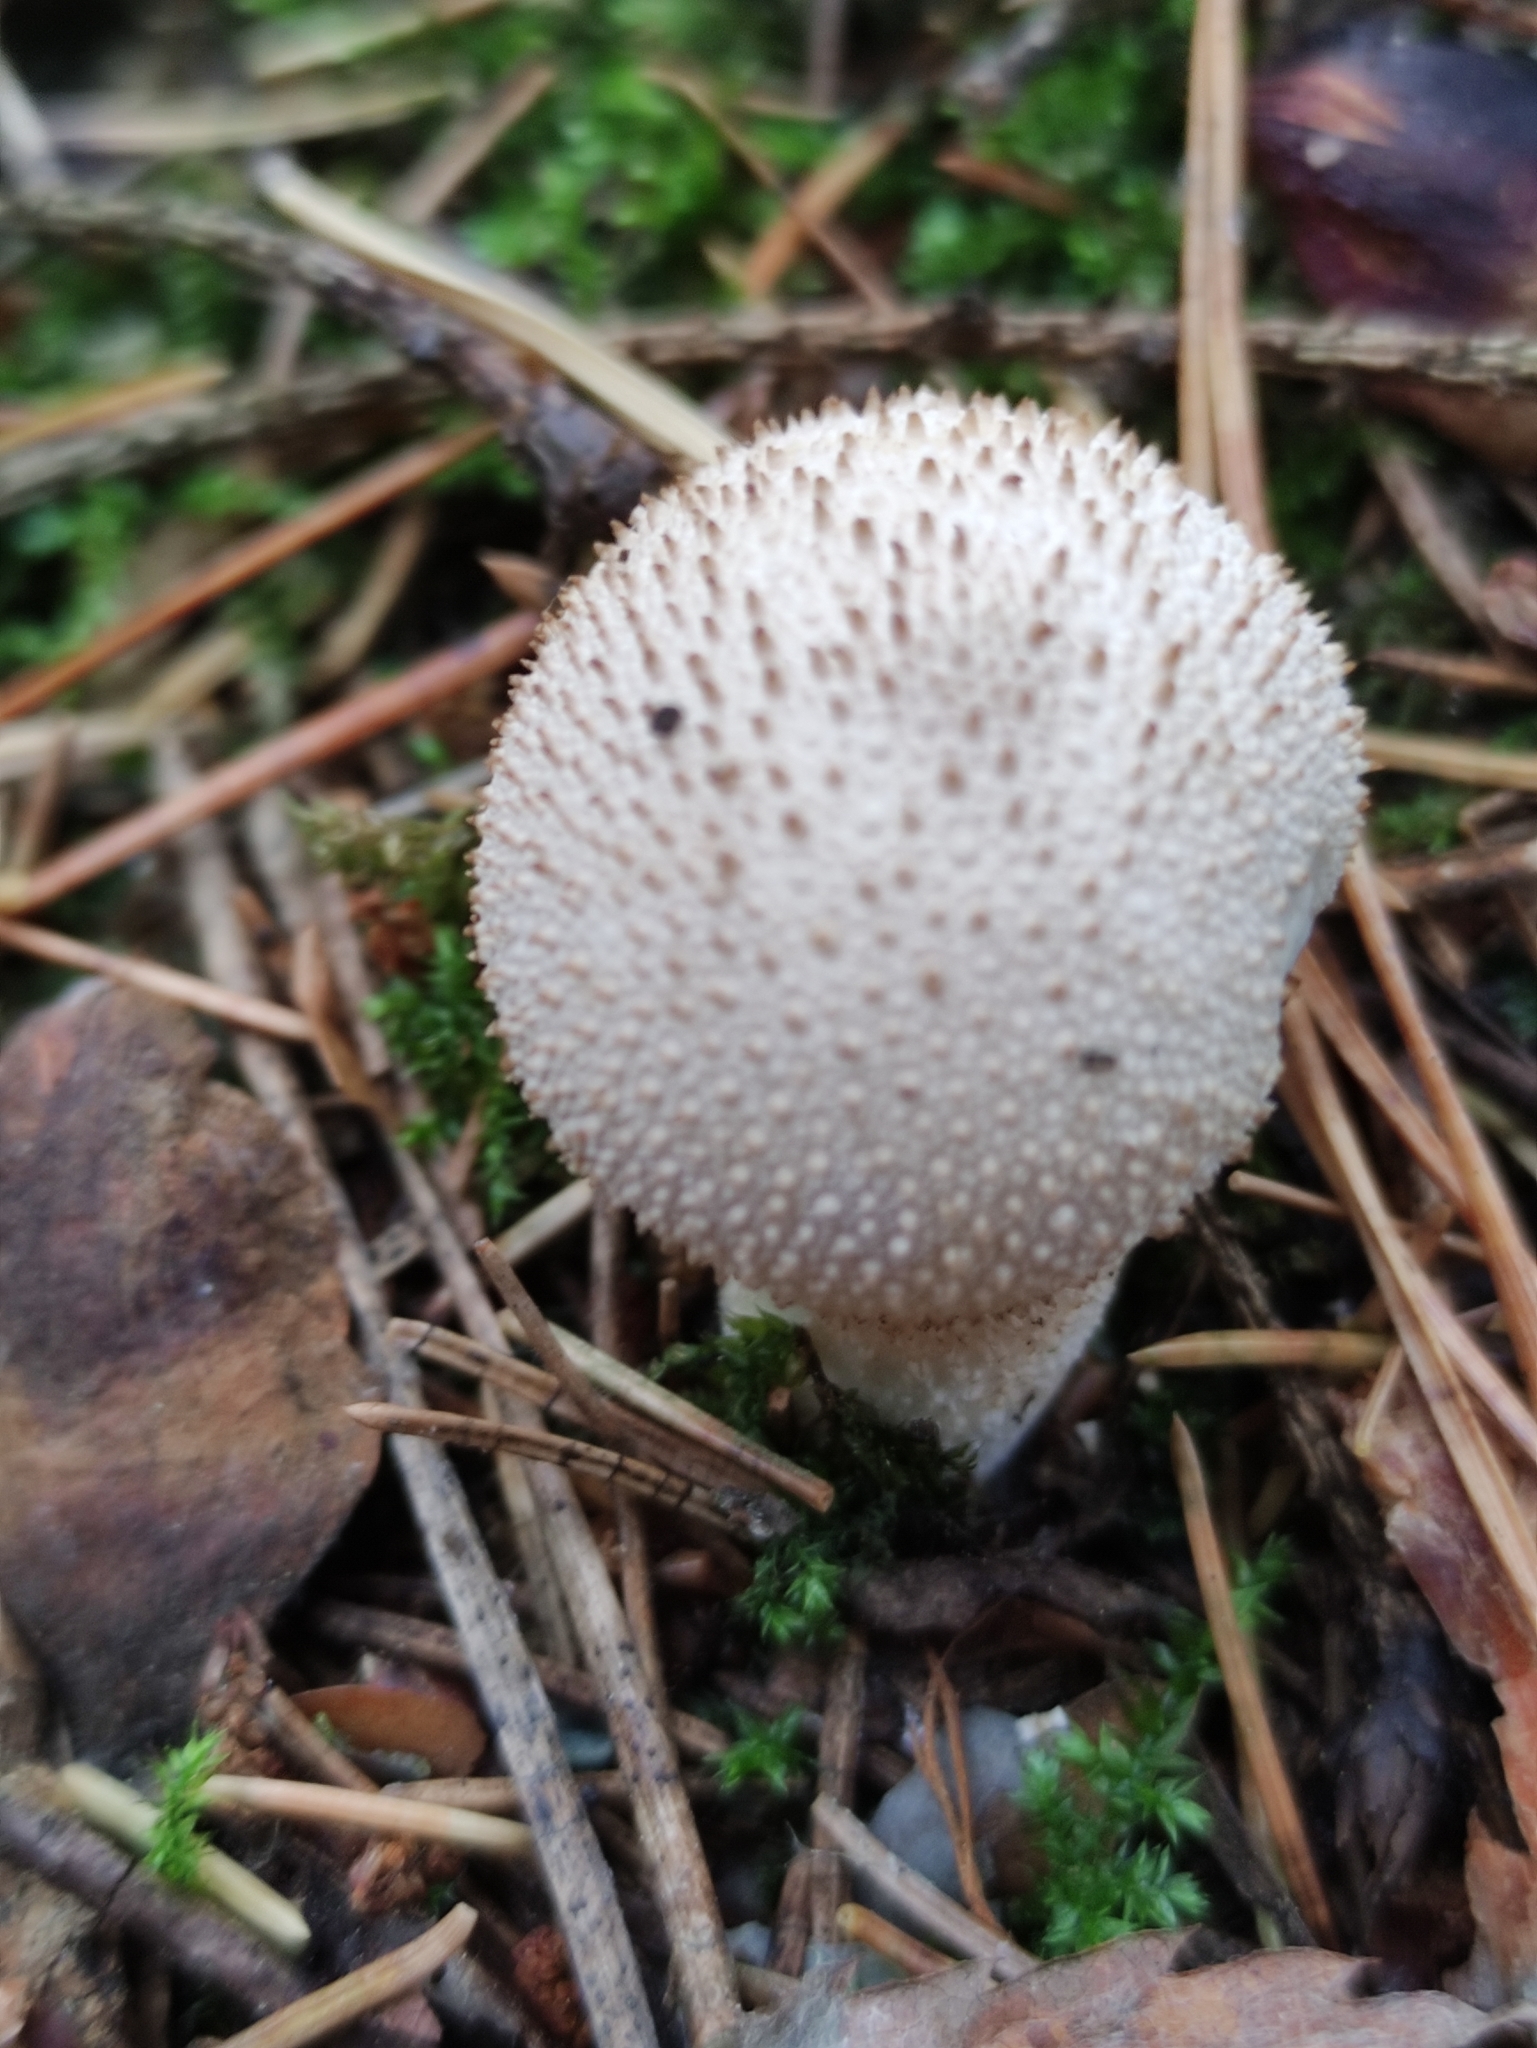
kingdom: Fungi
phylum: Basidiomycota
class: Agaricomycetes
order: Agaricales
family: Lycoperdaceae
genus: Lycoperdon
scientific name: Lycoperdon perlatum
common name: Common puffball
